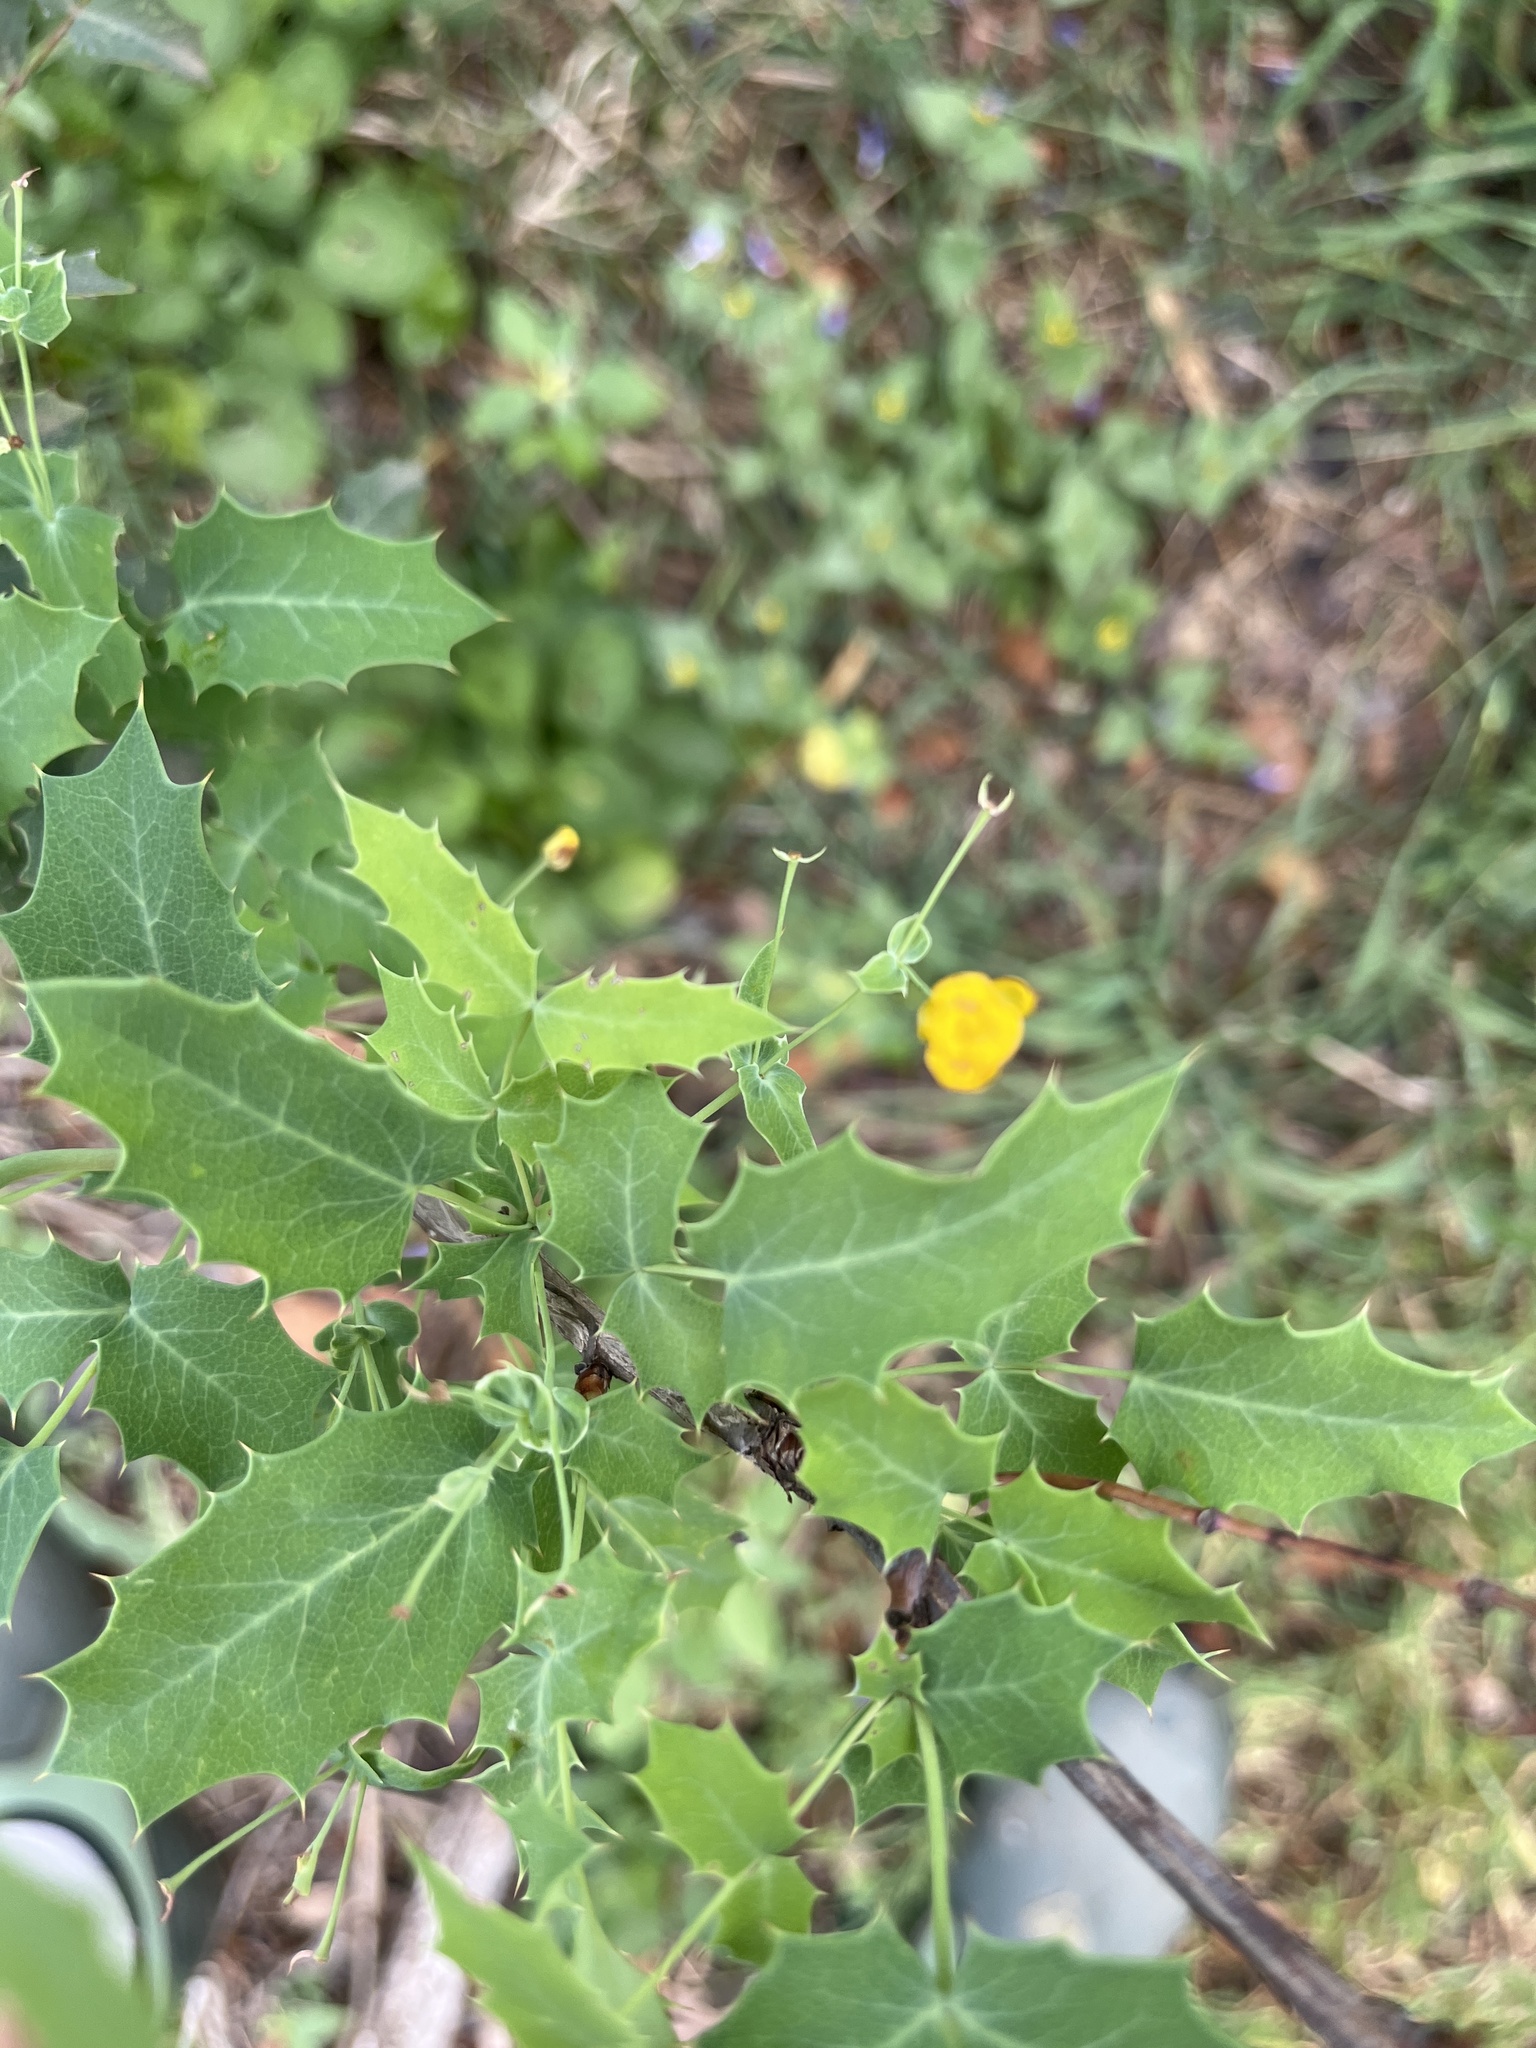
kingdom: Plantae
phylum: Tracheophyta
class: Magnoliopsida
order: Ranunculales
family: Berberidaceae
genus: Berberis
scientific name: Berberis swaseyi
